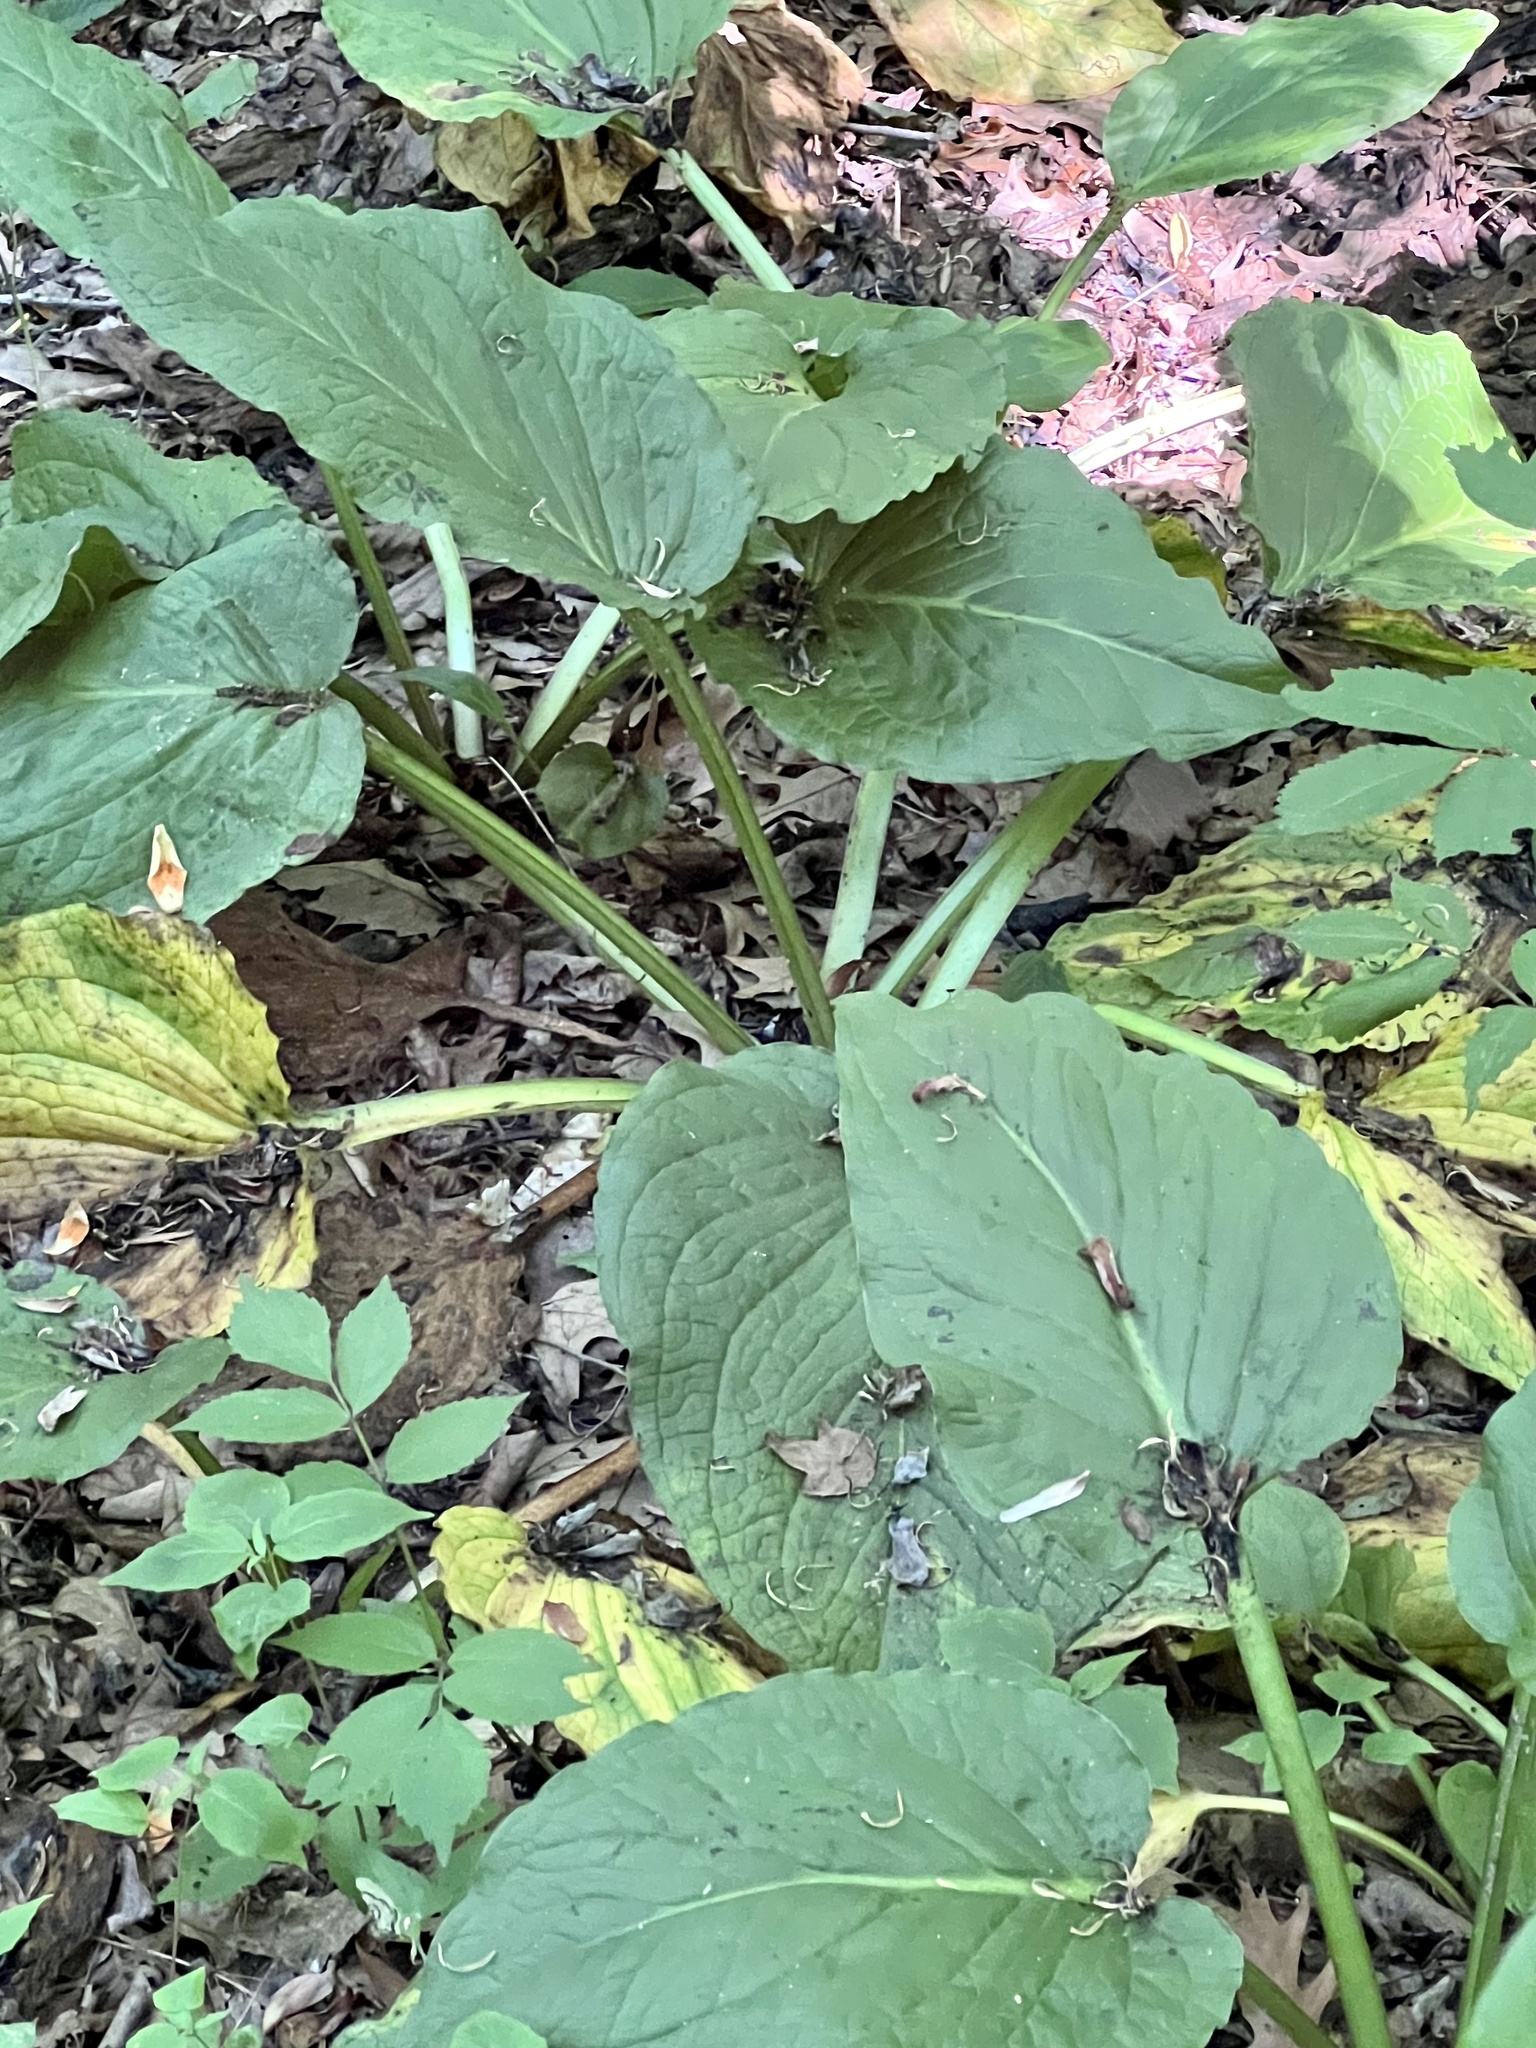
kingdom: Plantae
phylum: Tracheophyta
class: Liliopsida
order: Alismatales
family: Araceae
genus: Symplocarpus
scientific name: Symplocarpus foetidus
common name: Eastern skunk cabbage
